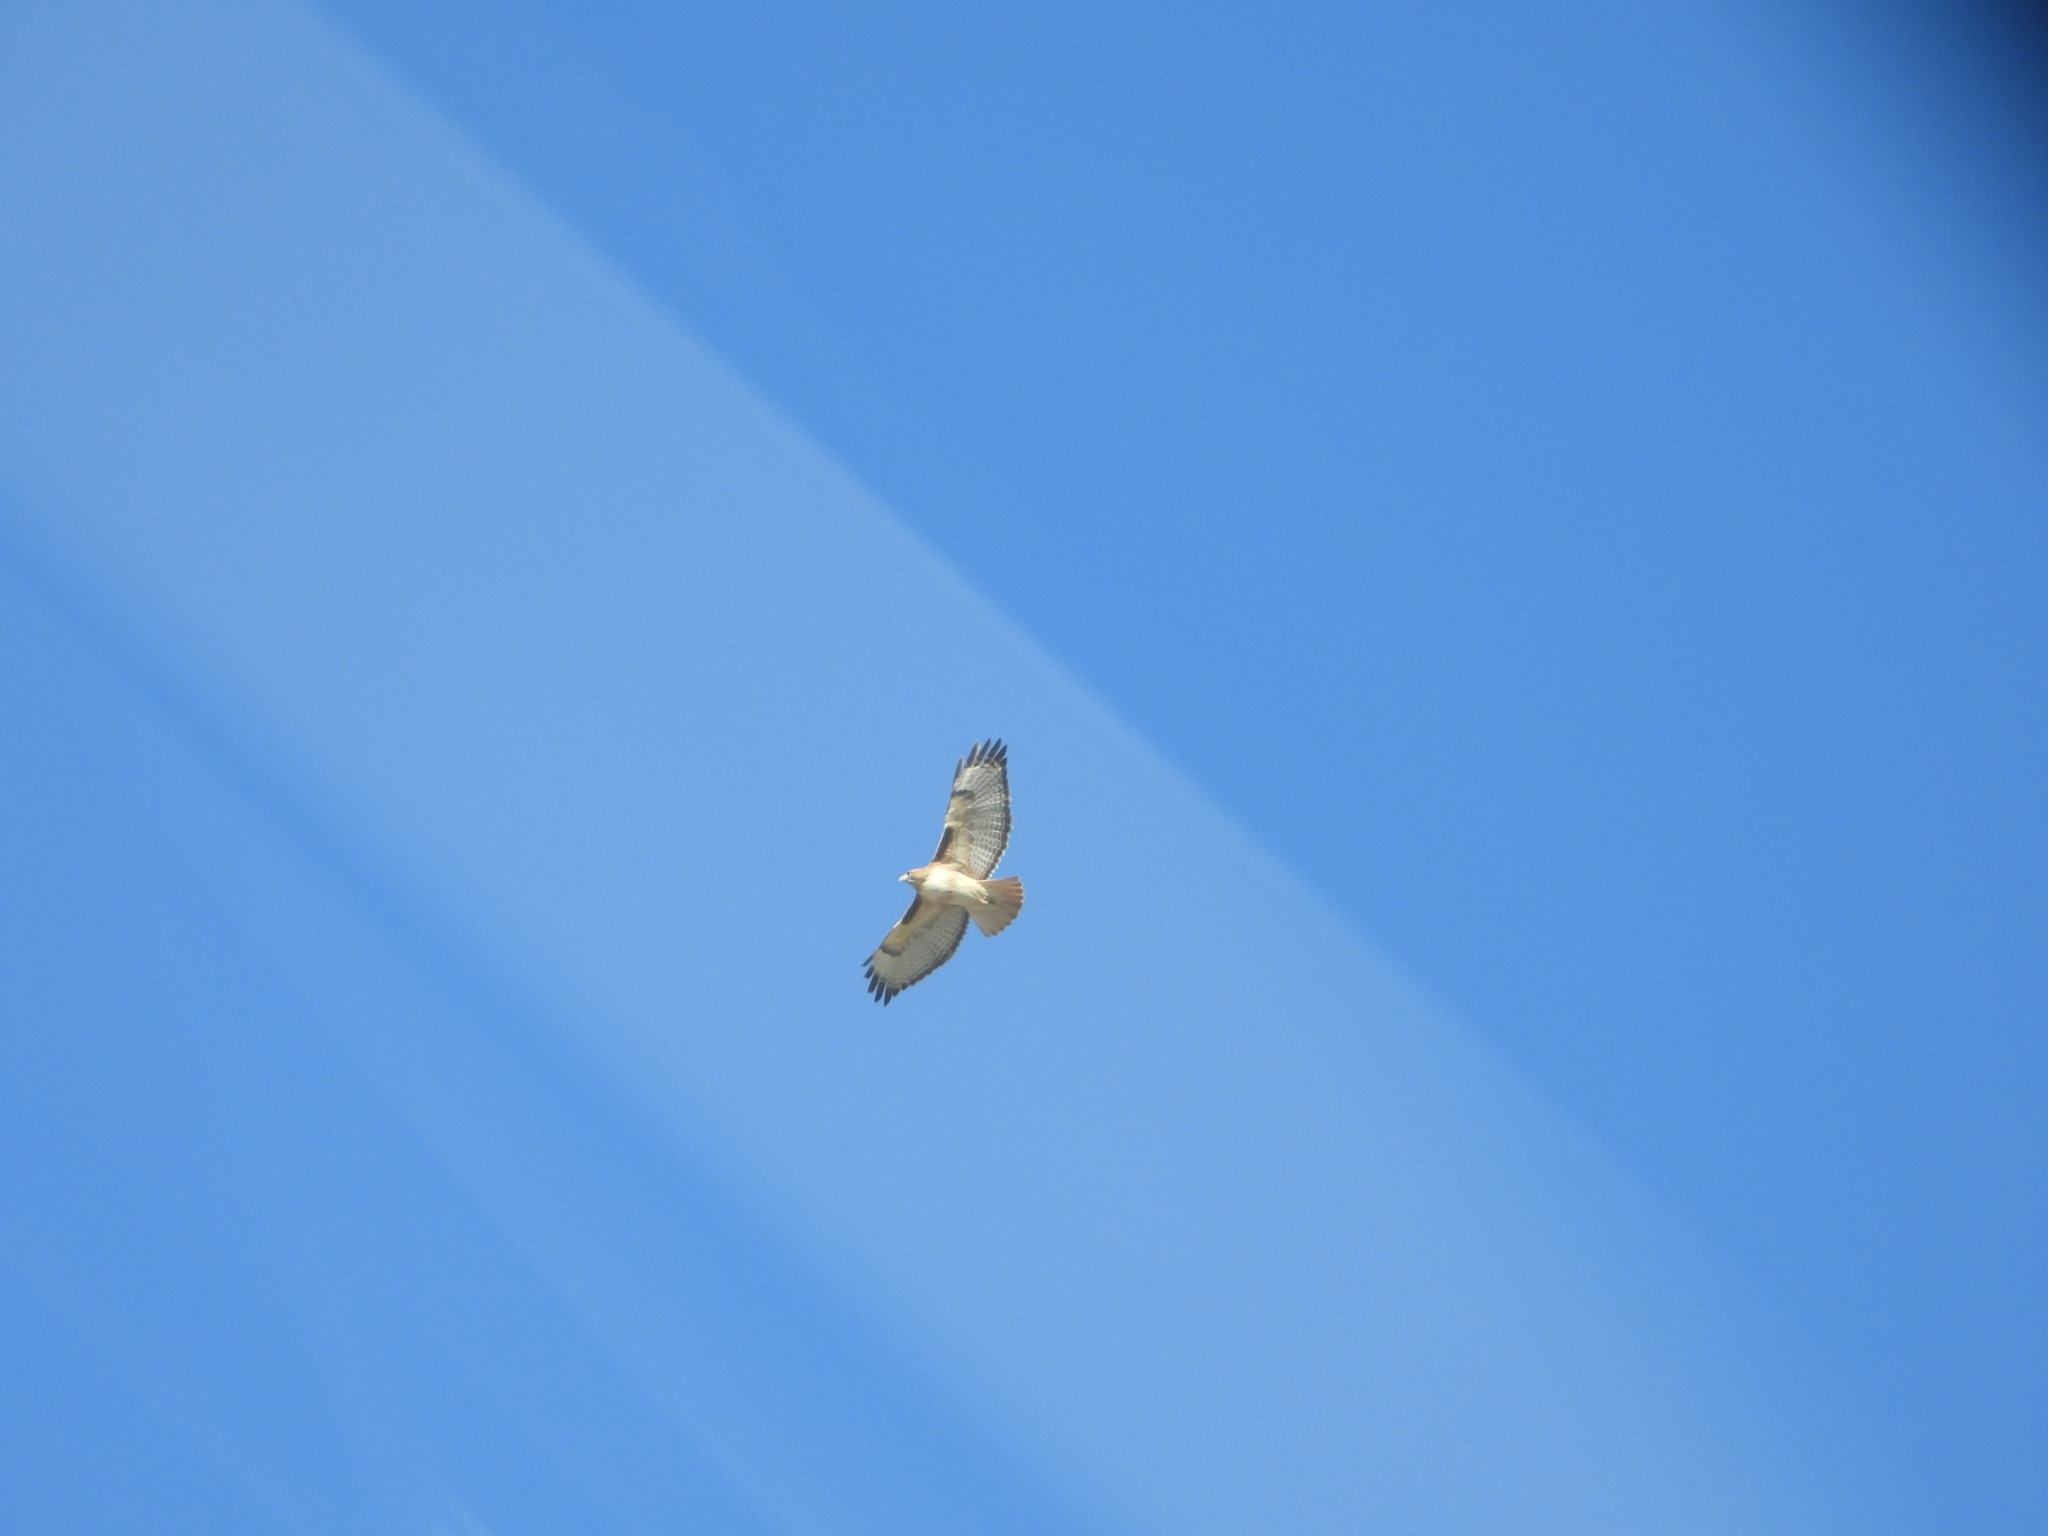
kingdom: Animalia
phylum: Chordata
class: Aves
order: Accipitriformes
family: Accipitridae
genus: Buteo
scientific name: Buteo jamaicensis
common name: Red-tailed hawk
